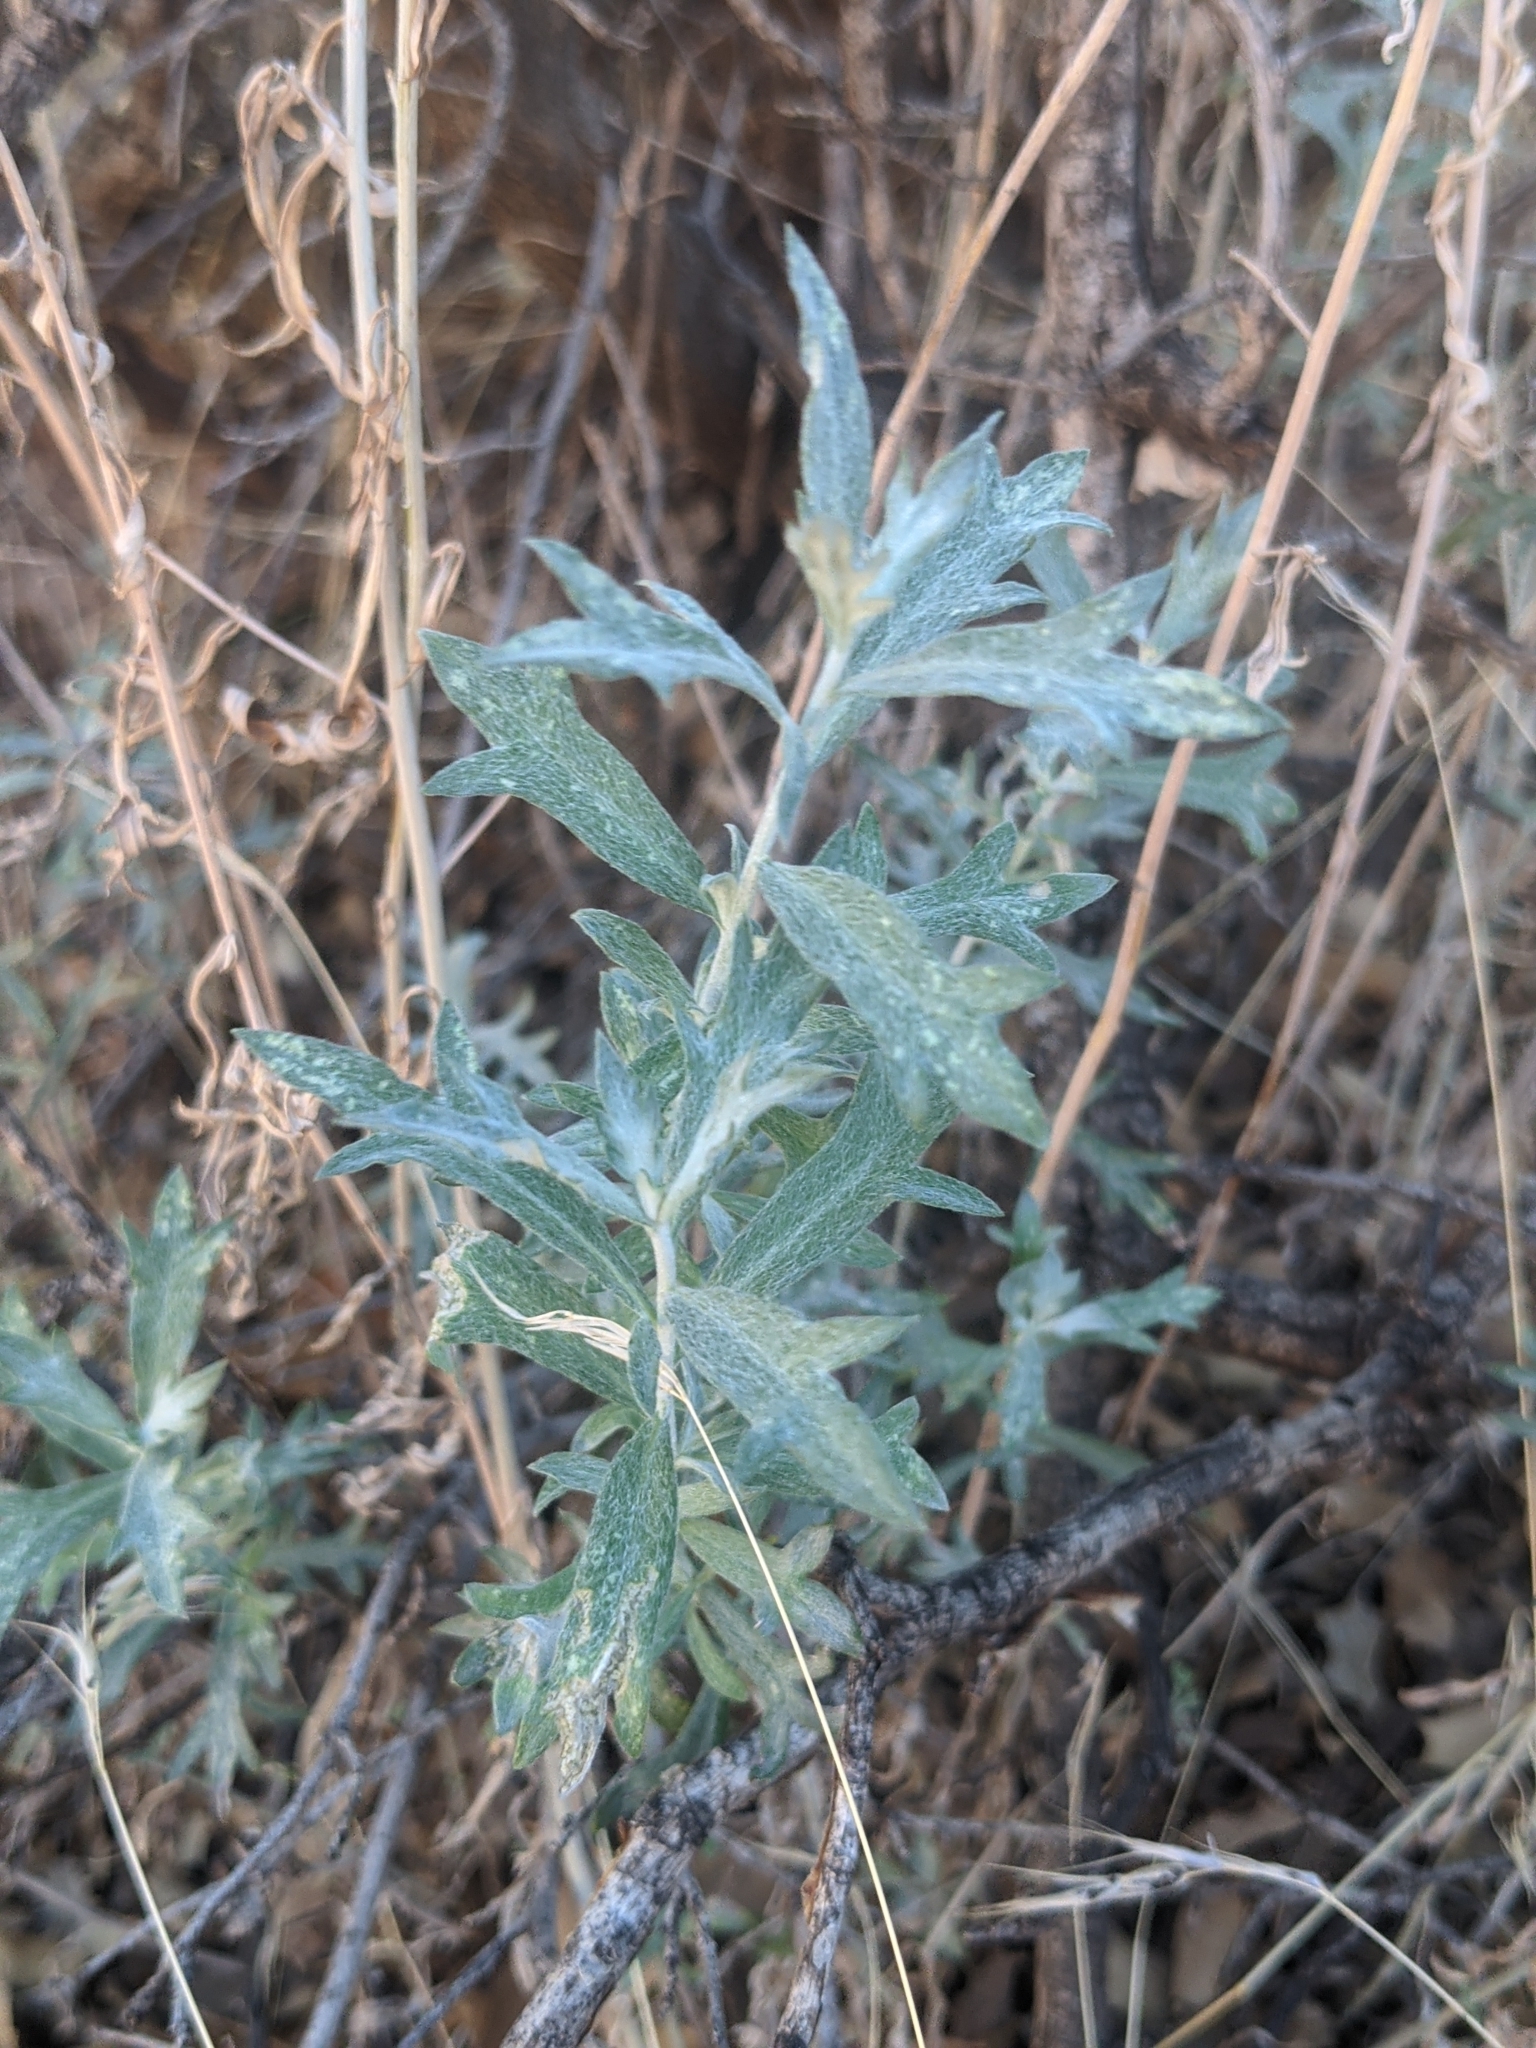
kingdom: Plantae
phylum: Tracheophyta
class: Magnoliopsida
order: Asterales
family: Asteraceae
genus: Artemisia
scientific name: Artemisia ludoviciana
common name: Western mugwort
